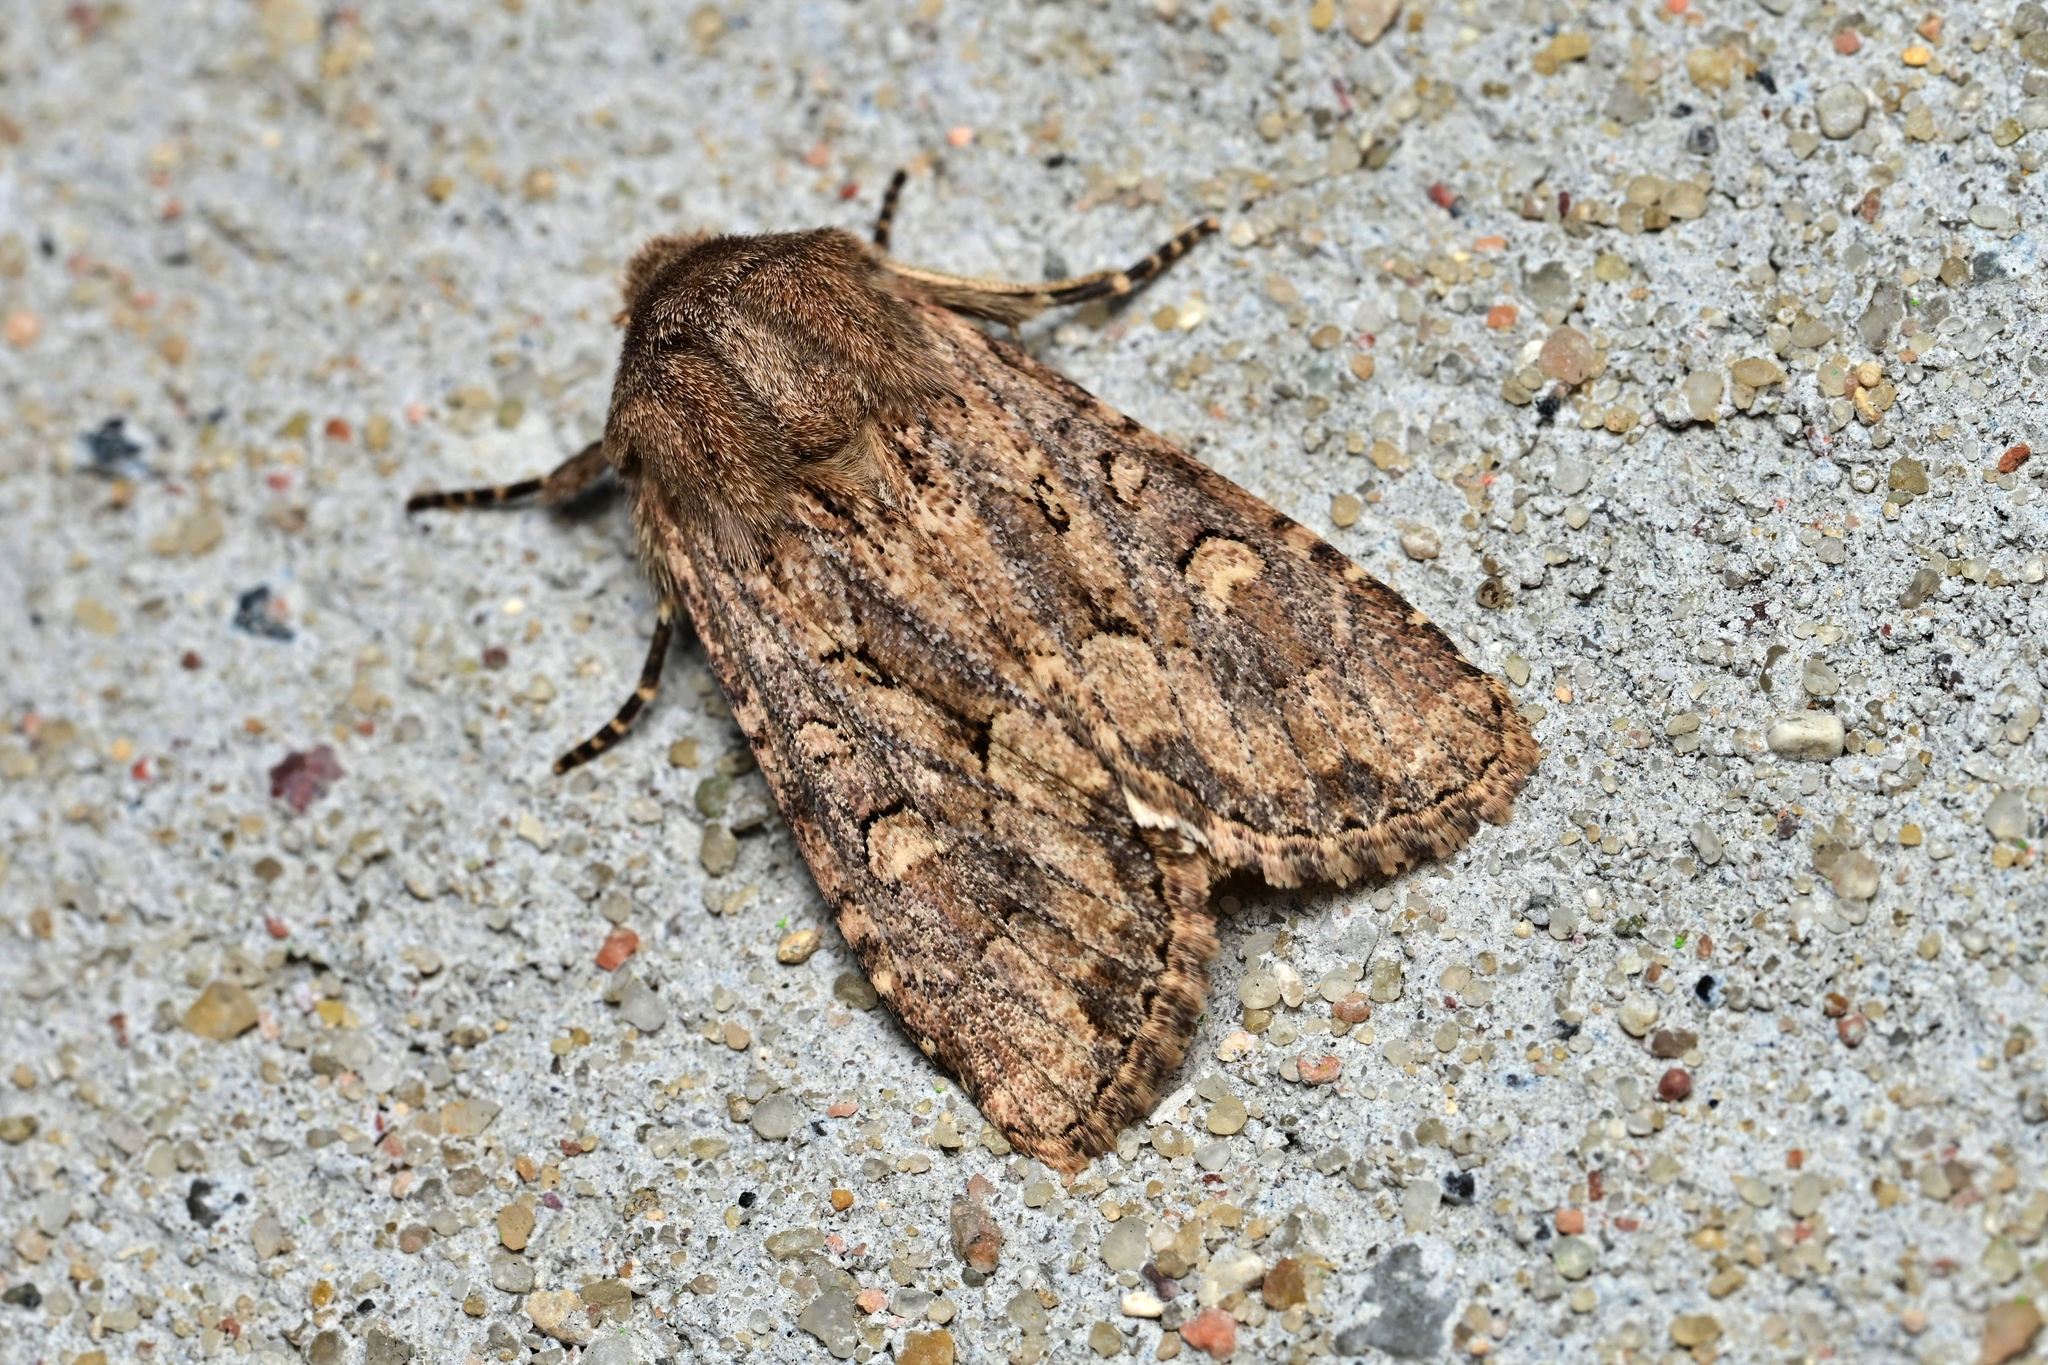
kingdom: Animalia
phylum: Arthropoda
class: Insecta
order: Lepidoptera
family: Noctuidae
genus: Luperina
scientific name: Luperina testacea
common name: Flounced rustic
